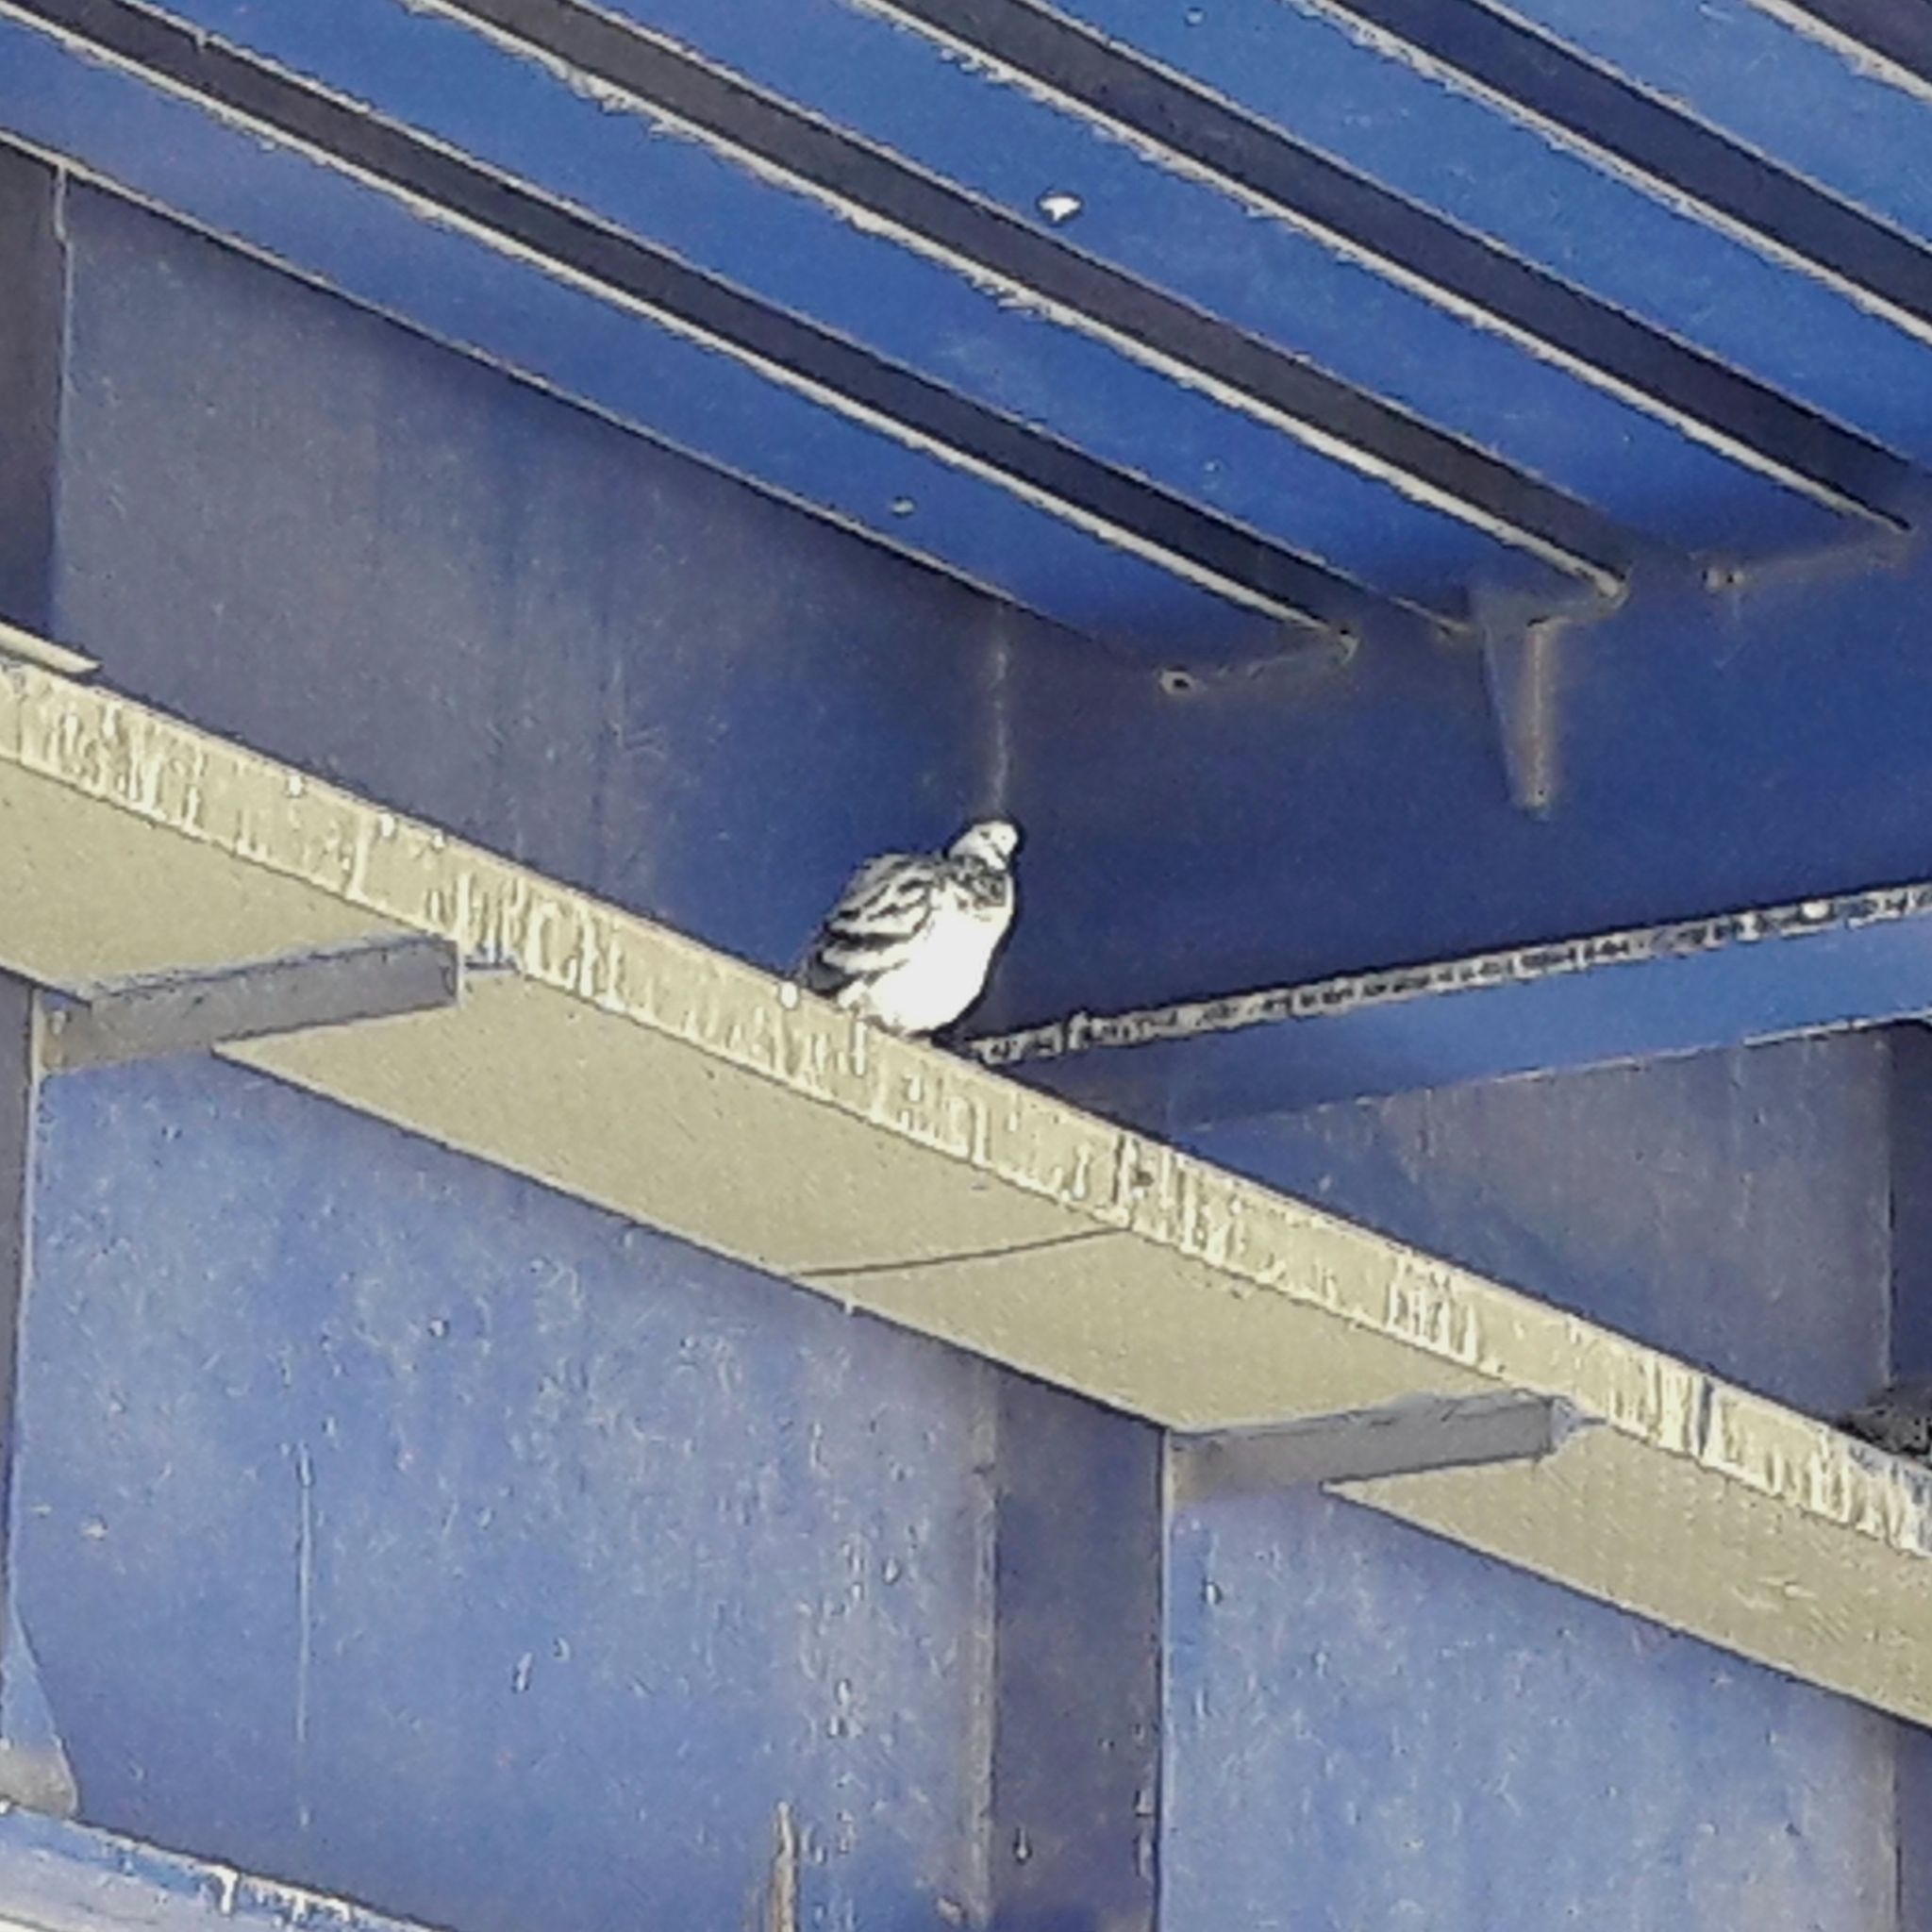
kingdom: Animalia
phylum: Chordata
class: Aves
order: Columbiformes
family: Columbidae
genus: Columba
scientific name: Columba livia
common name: Rock pigeon
